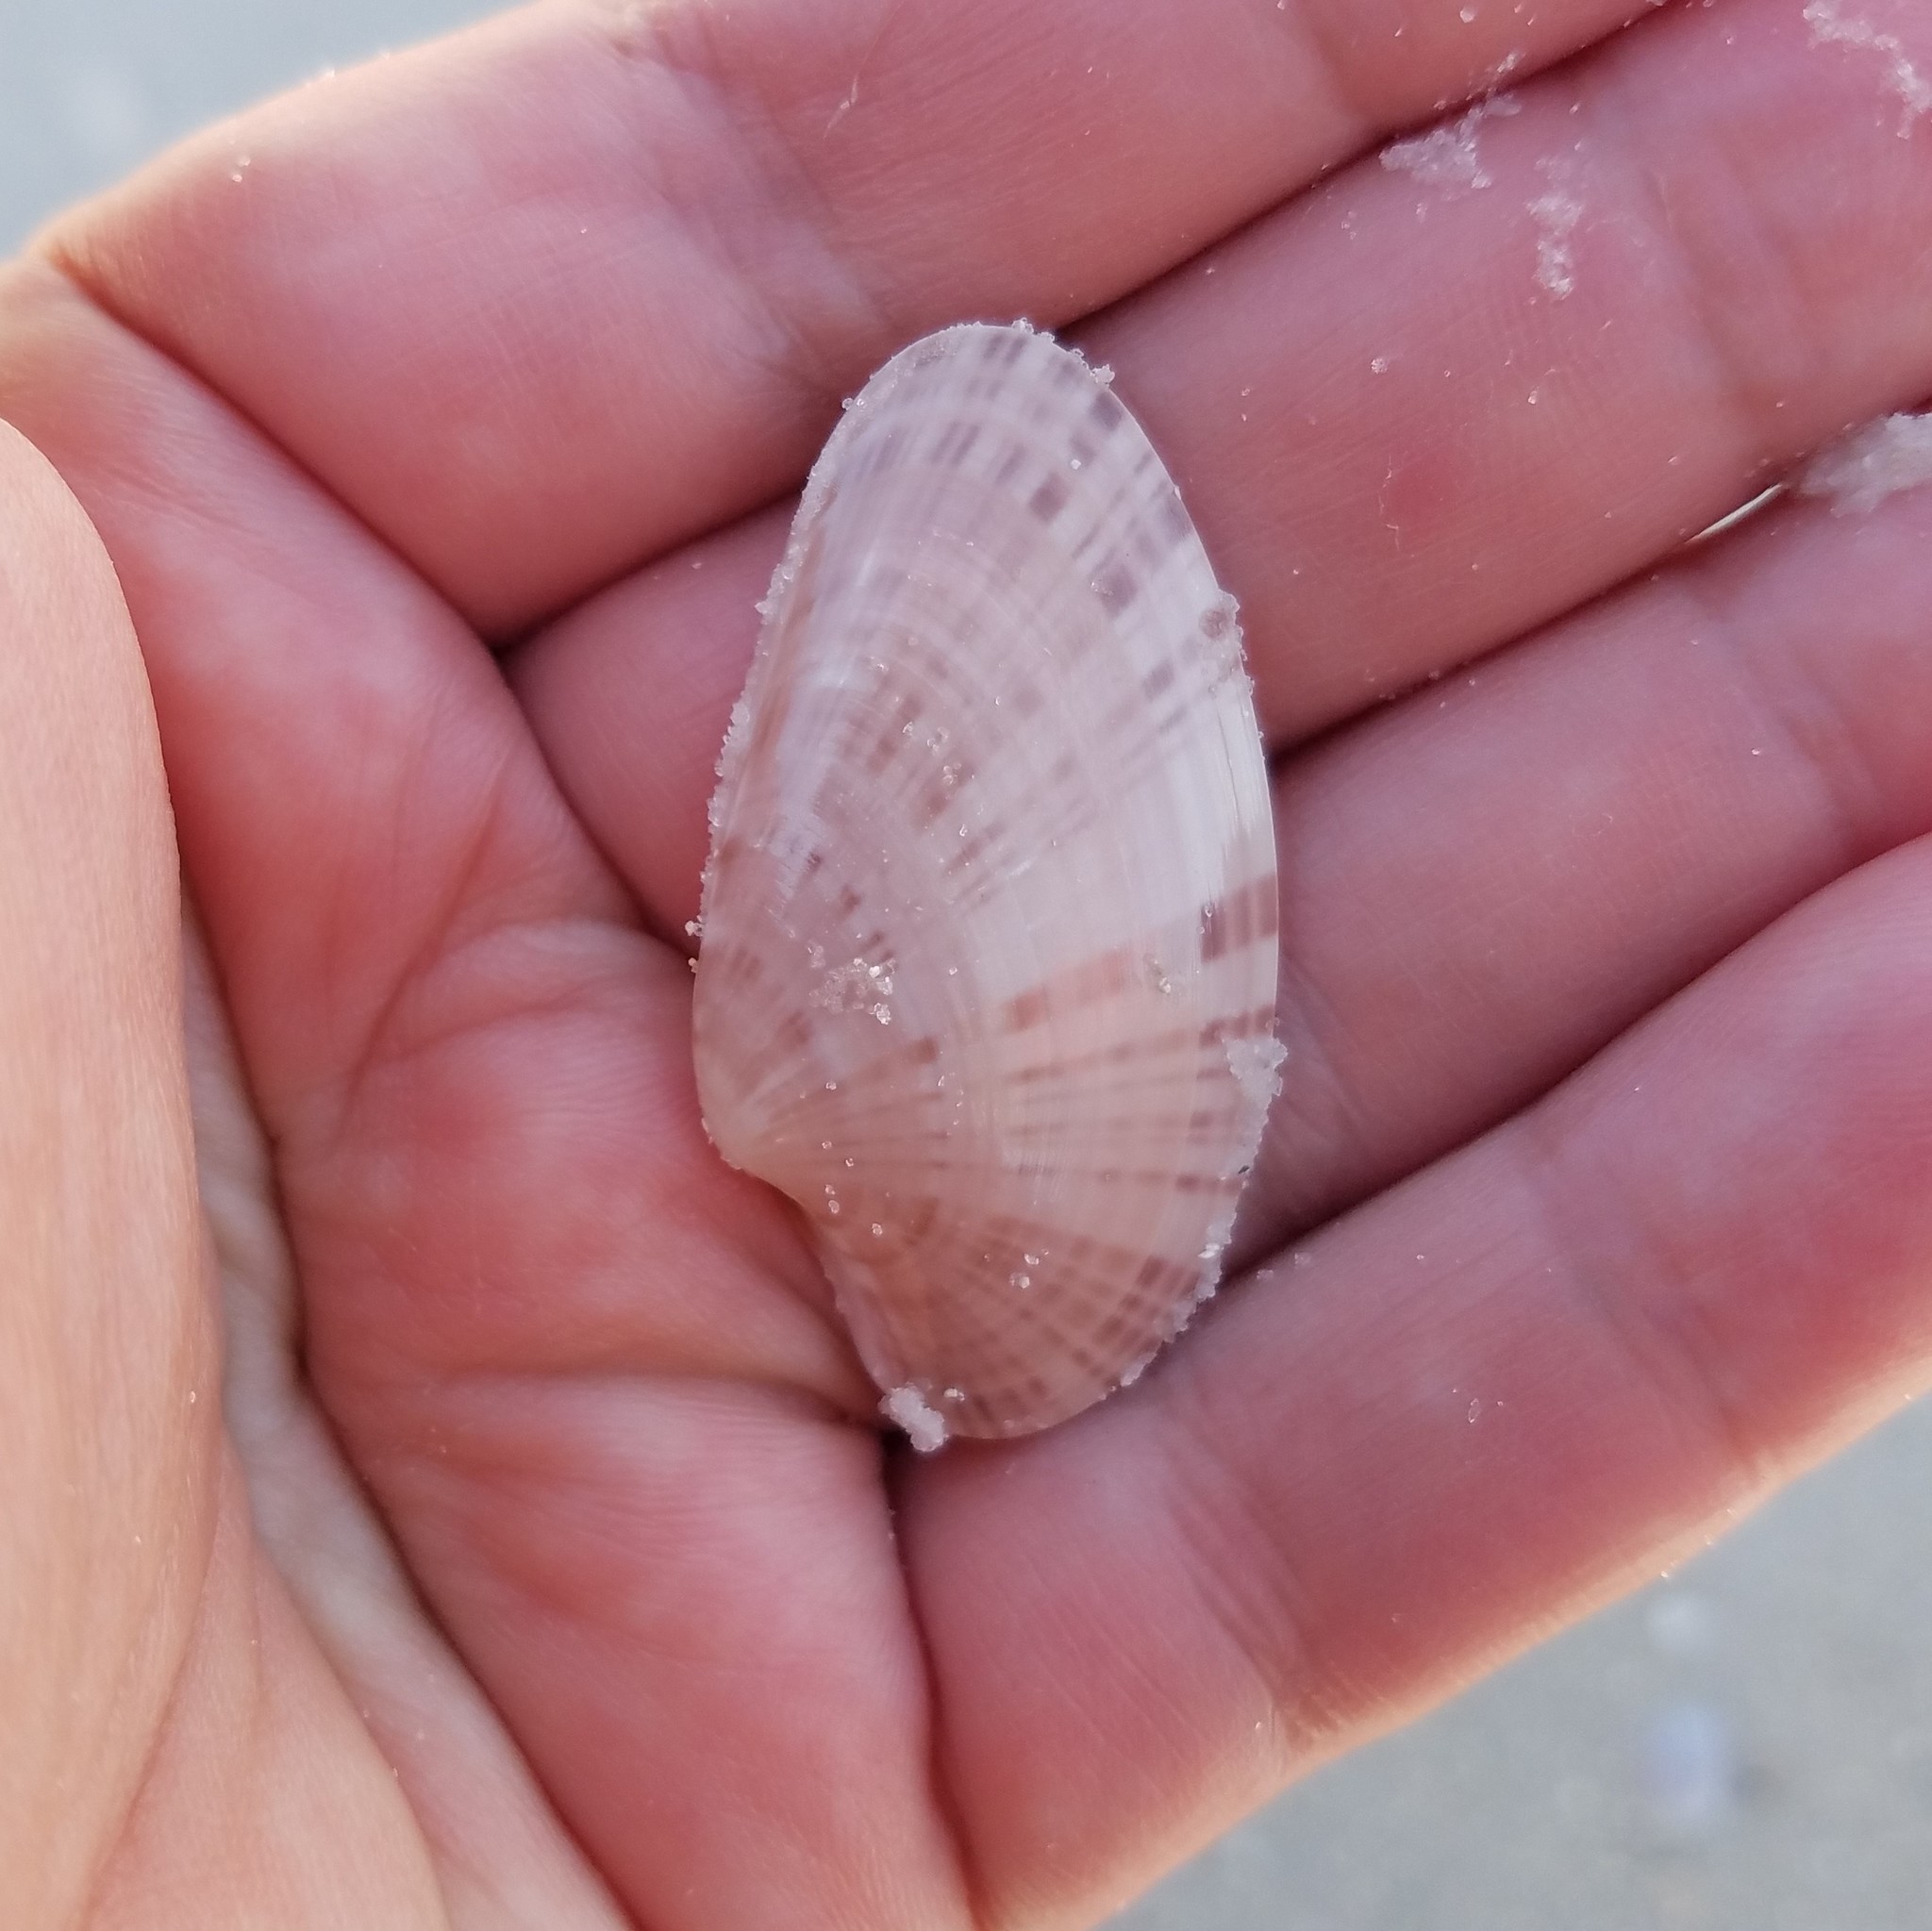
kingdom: Animalia
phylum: Mollusca
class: Bivalvia
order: Venerida
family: Veneridae
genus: Macrocallista
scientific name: Macrocallista nimbosa
